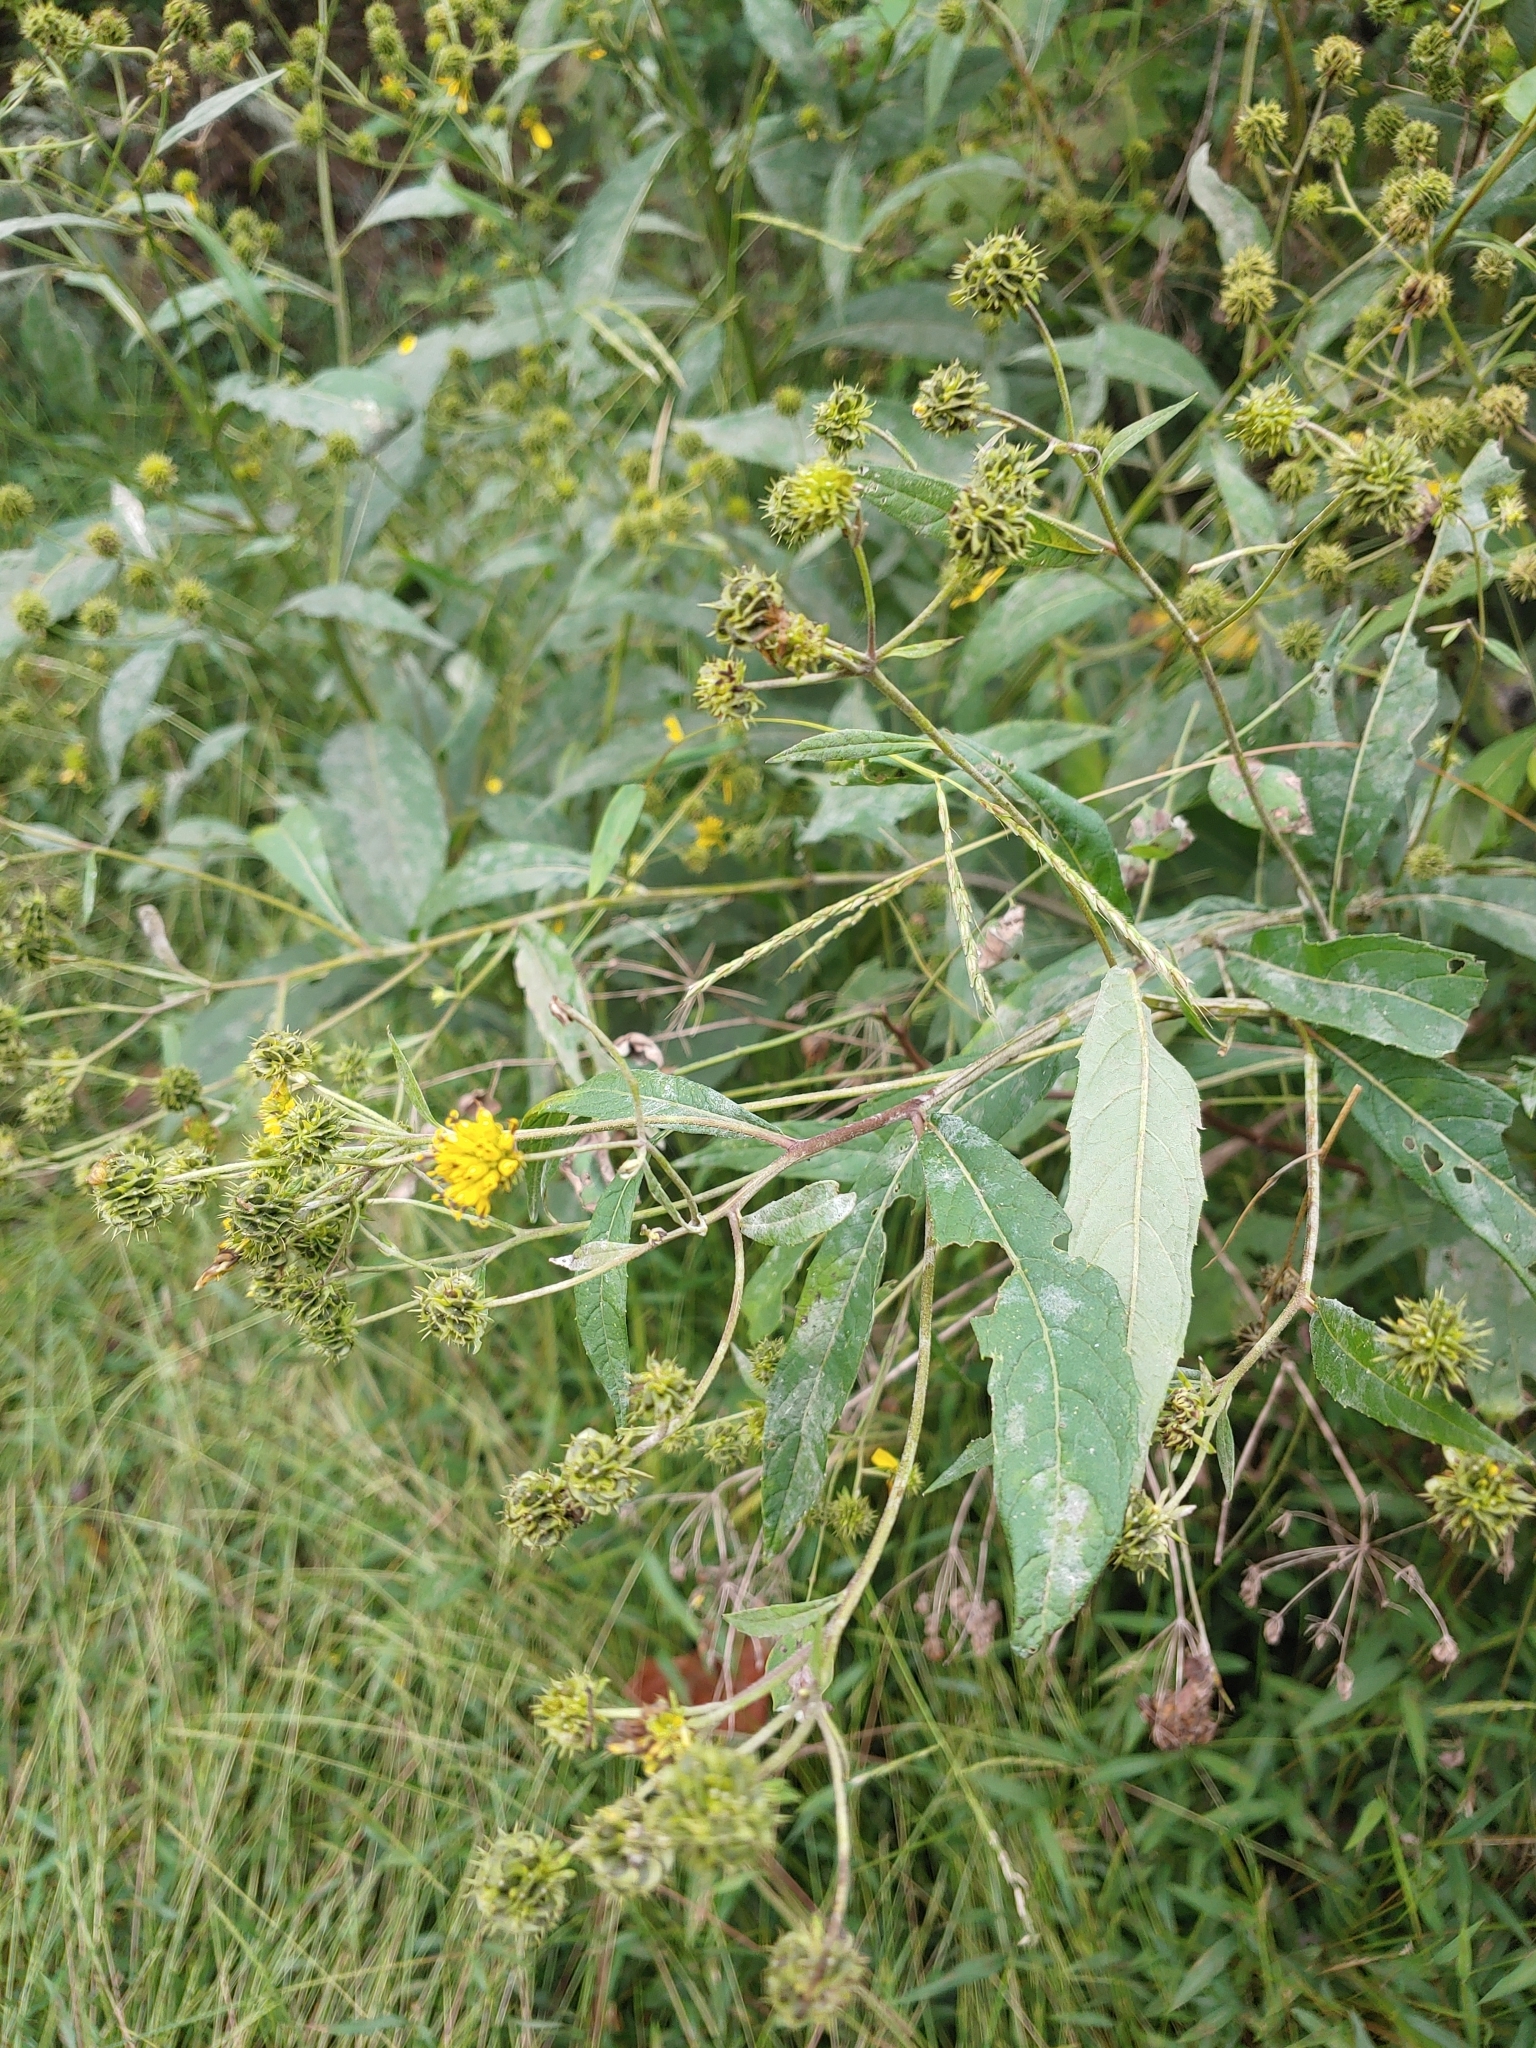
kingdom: Plantae
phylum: Tracheophyta
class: Magnoliopsida
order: Asterales
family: Asteraceae
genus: Verbesina
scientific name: Verbesina alternifolia
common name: Wingstem
